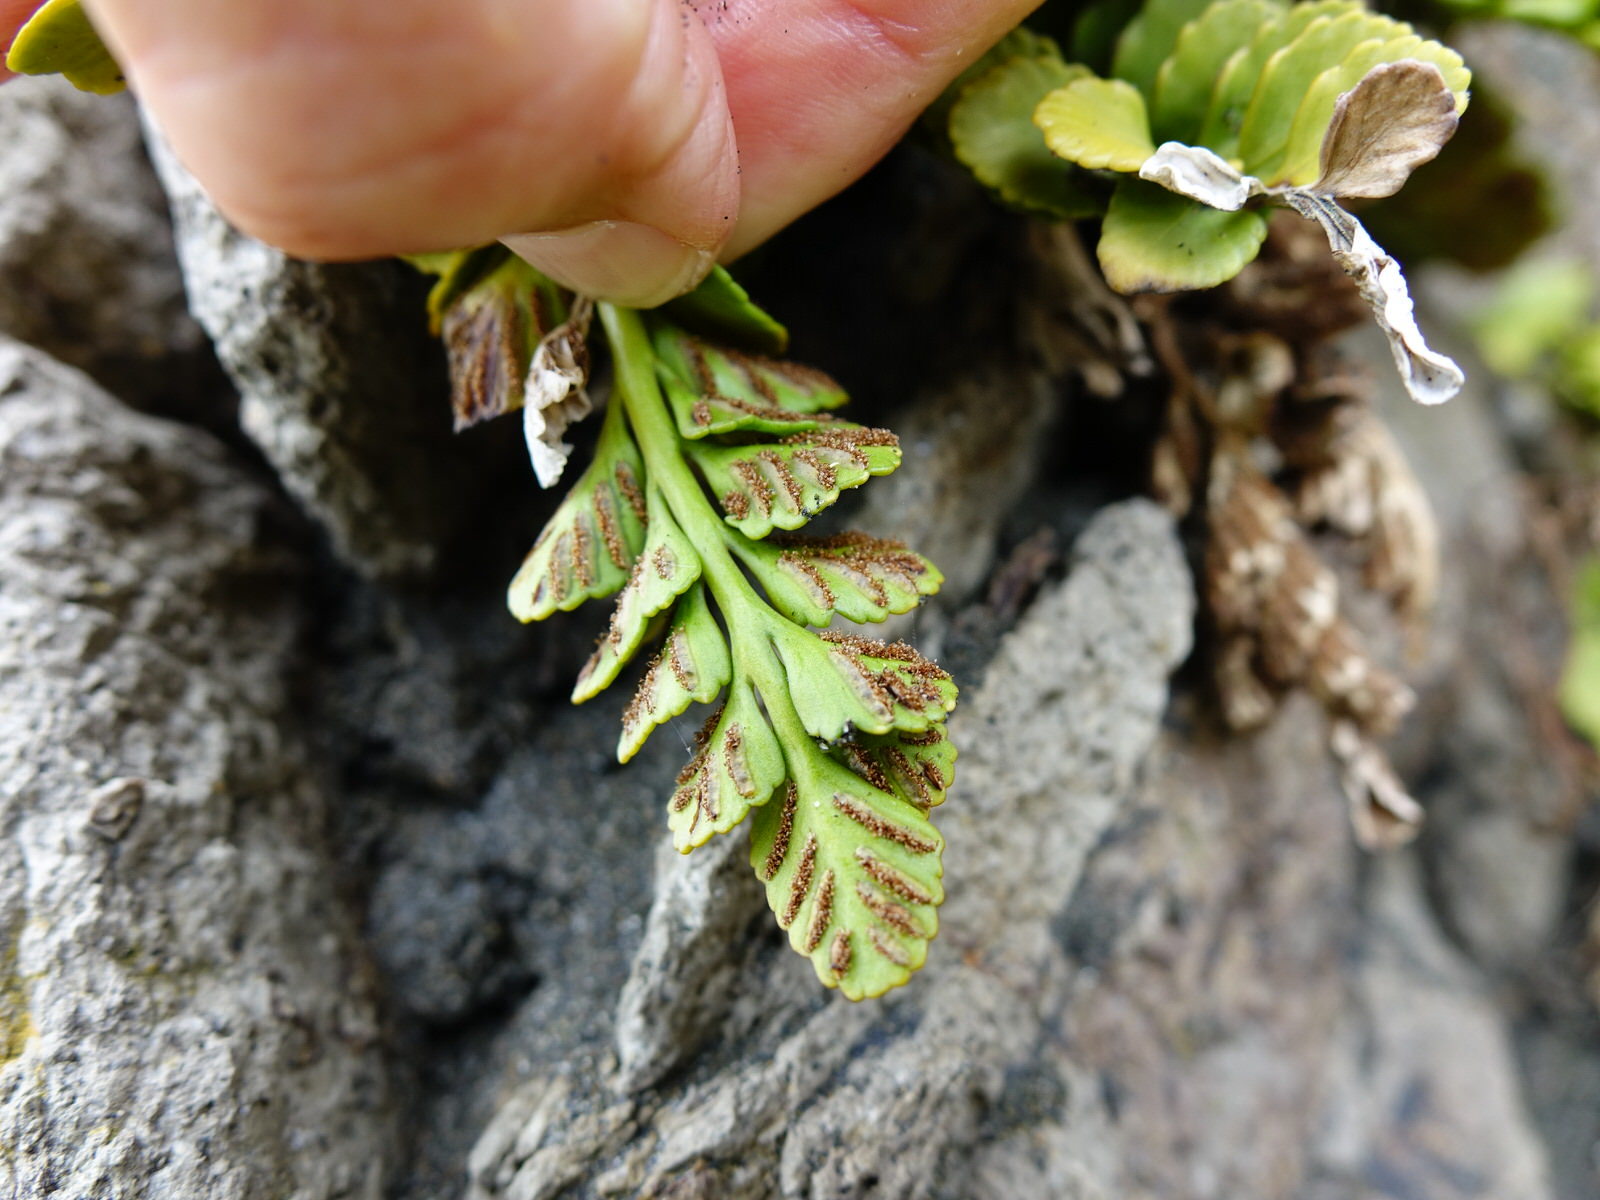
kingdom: Plantae
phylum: Tracheophyta
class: Polypodiopsida
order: Polypodiales
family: Aspleniaceae
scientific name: Aspleniaceae
